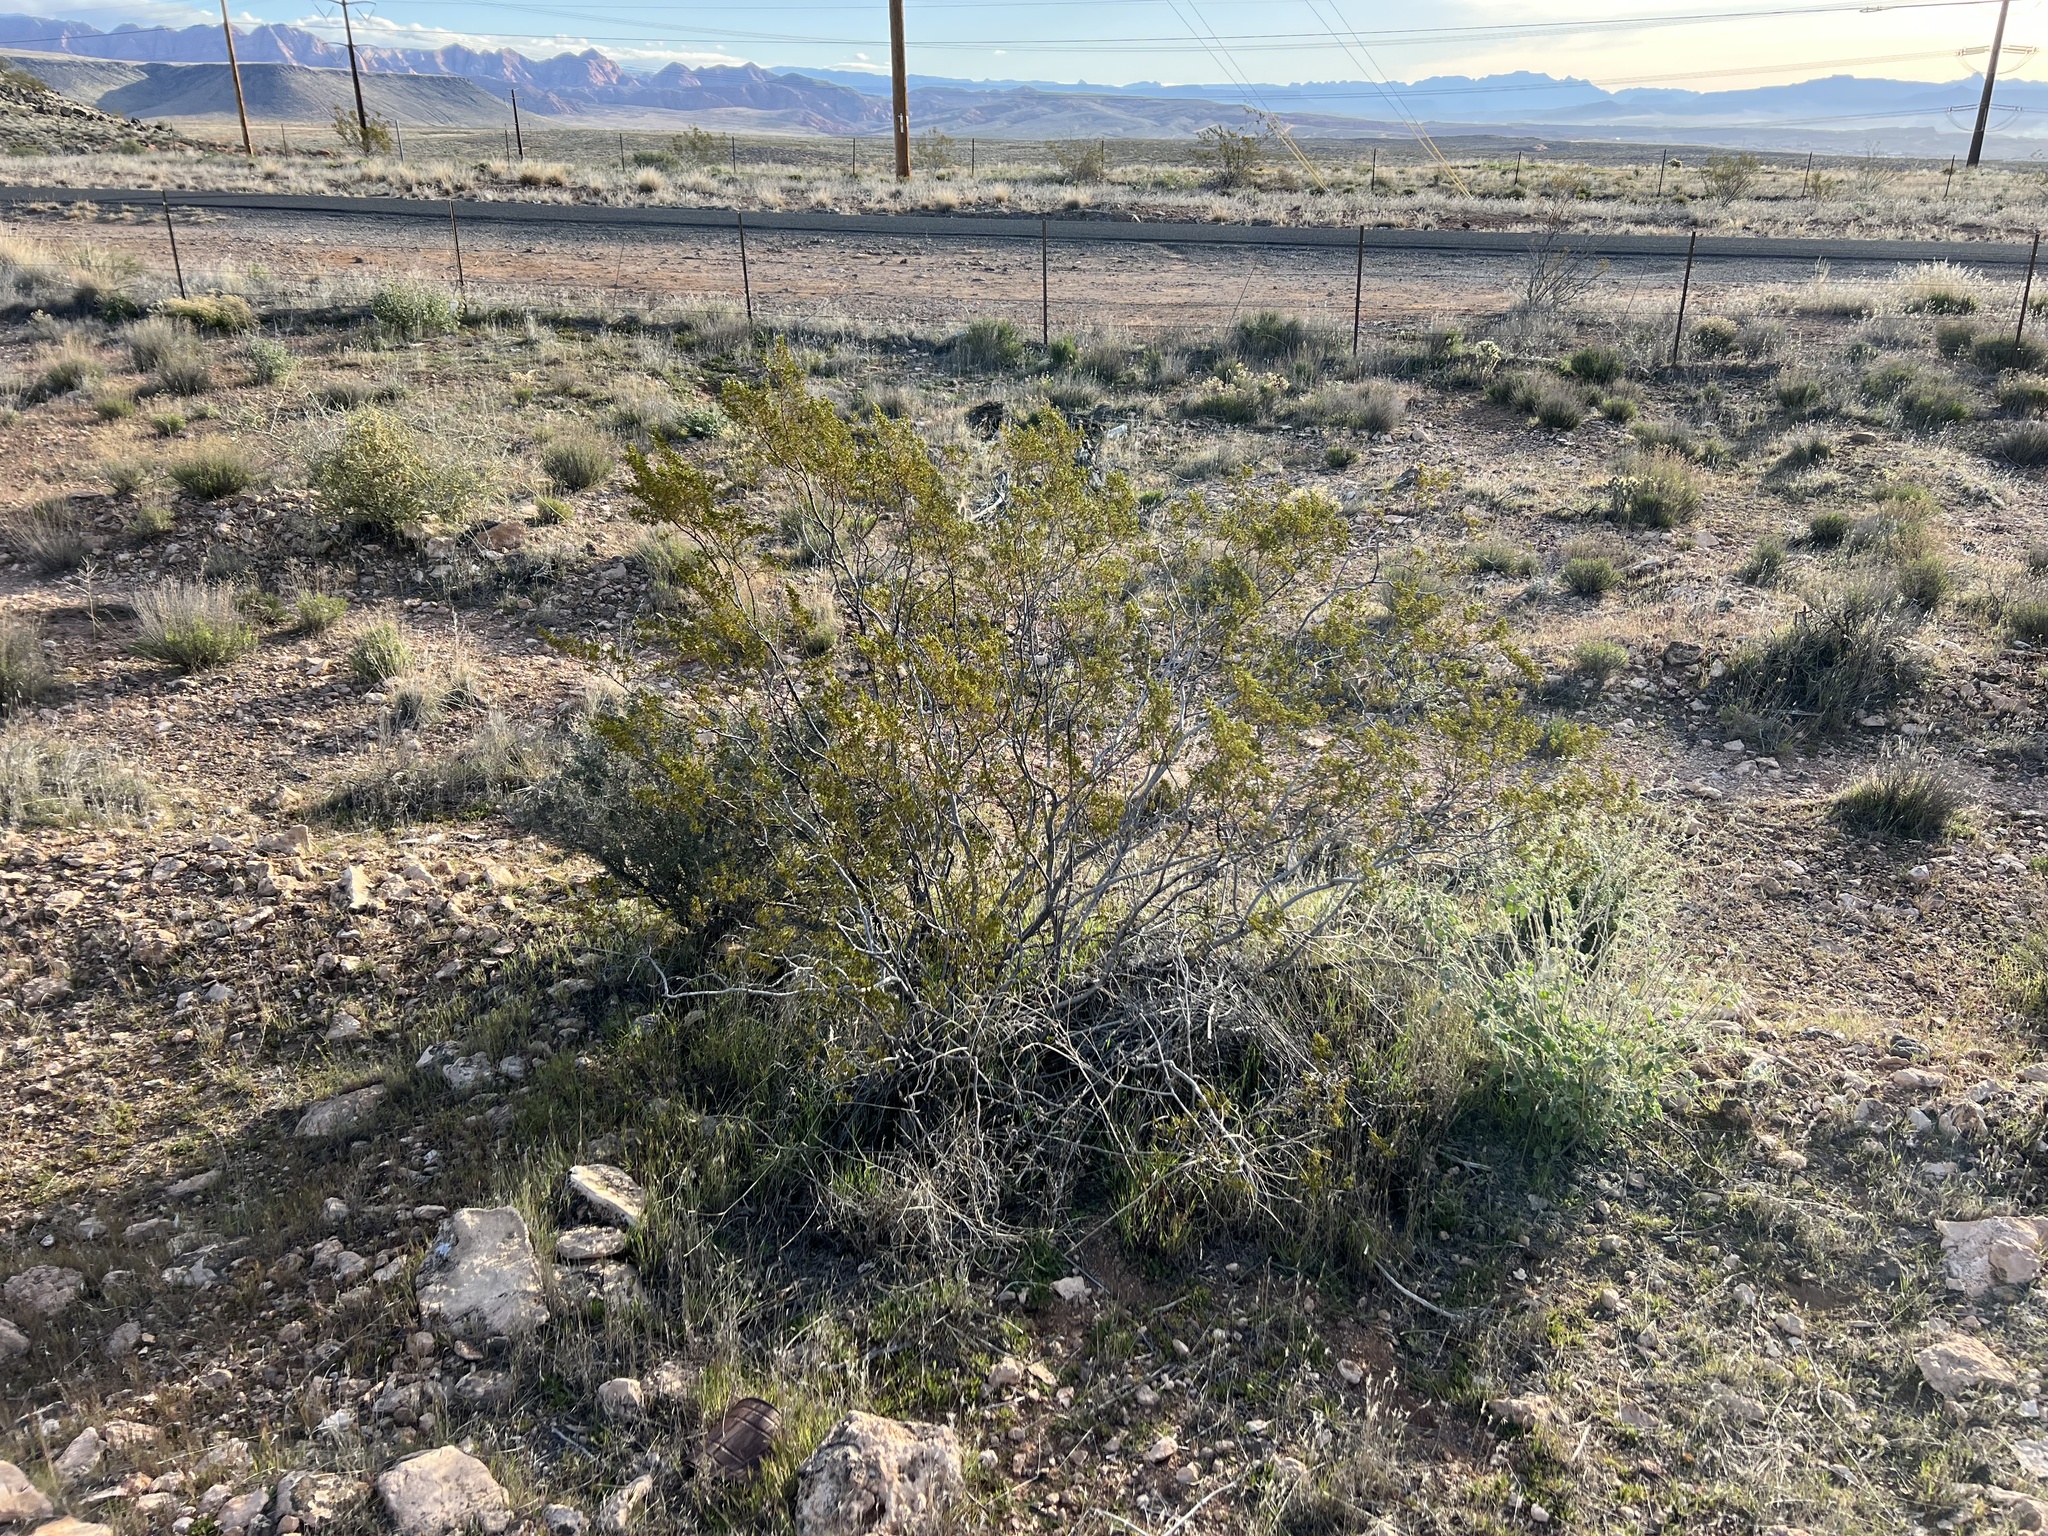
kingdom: Plantae
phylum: Tracheophyta
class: Magnoliopsida
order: Zygophyllales
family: Zygophyllaceae
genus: Larrea
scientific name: Larrea tridentata
